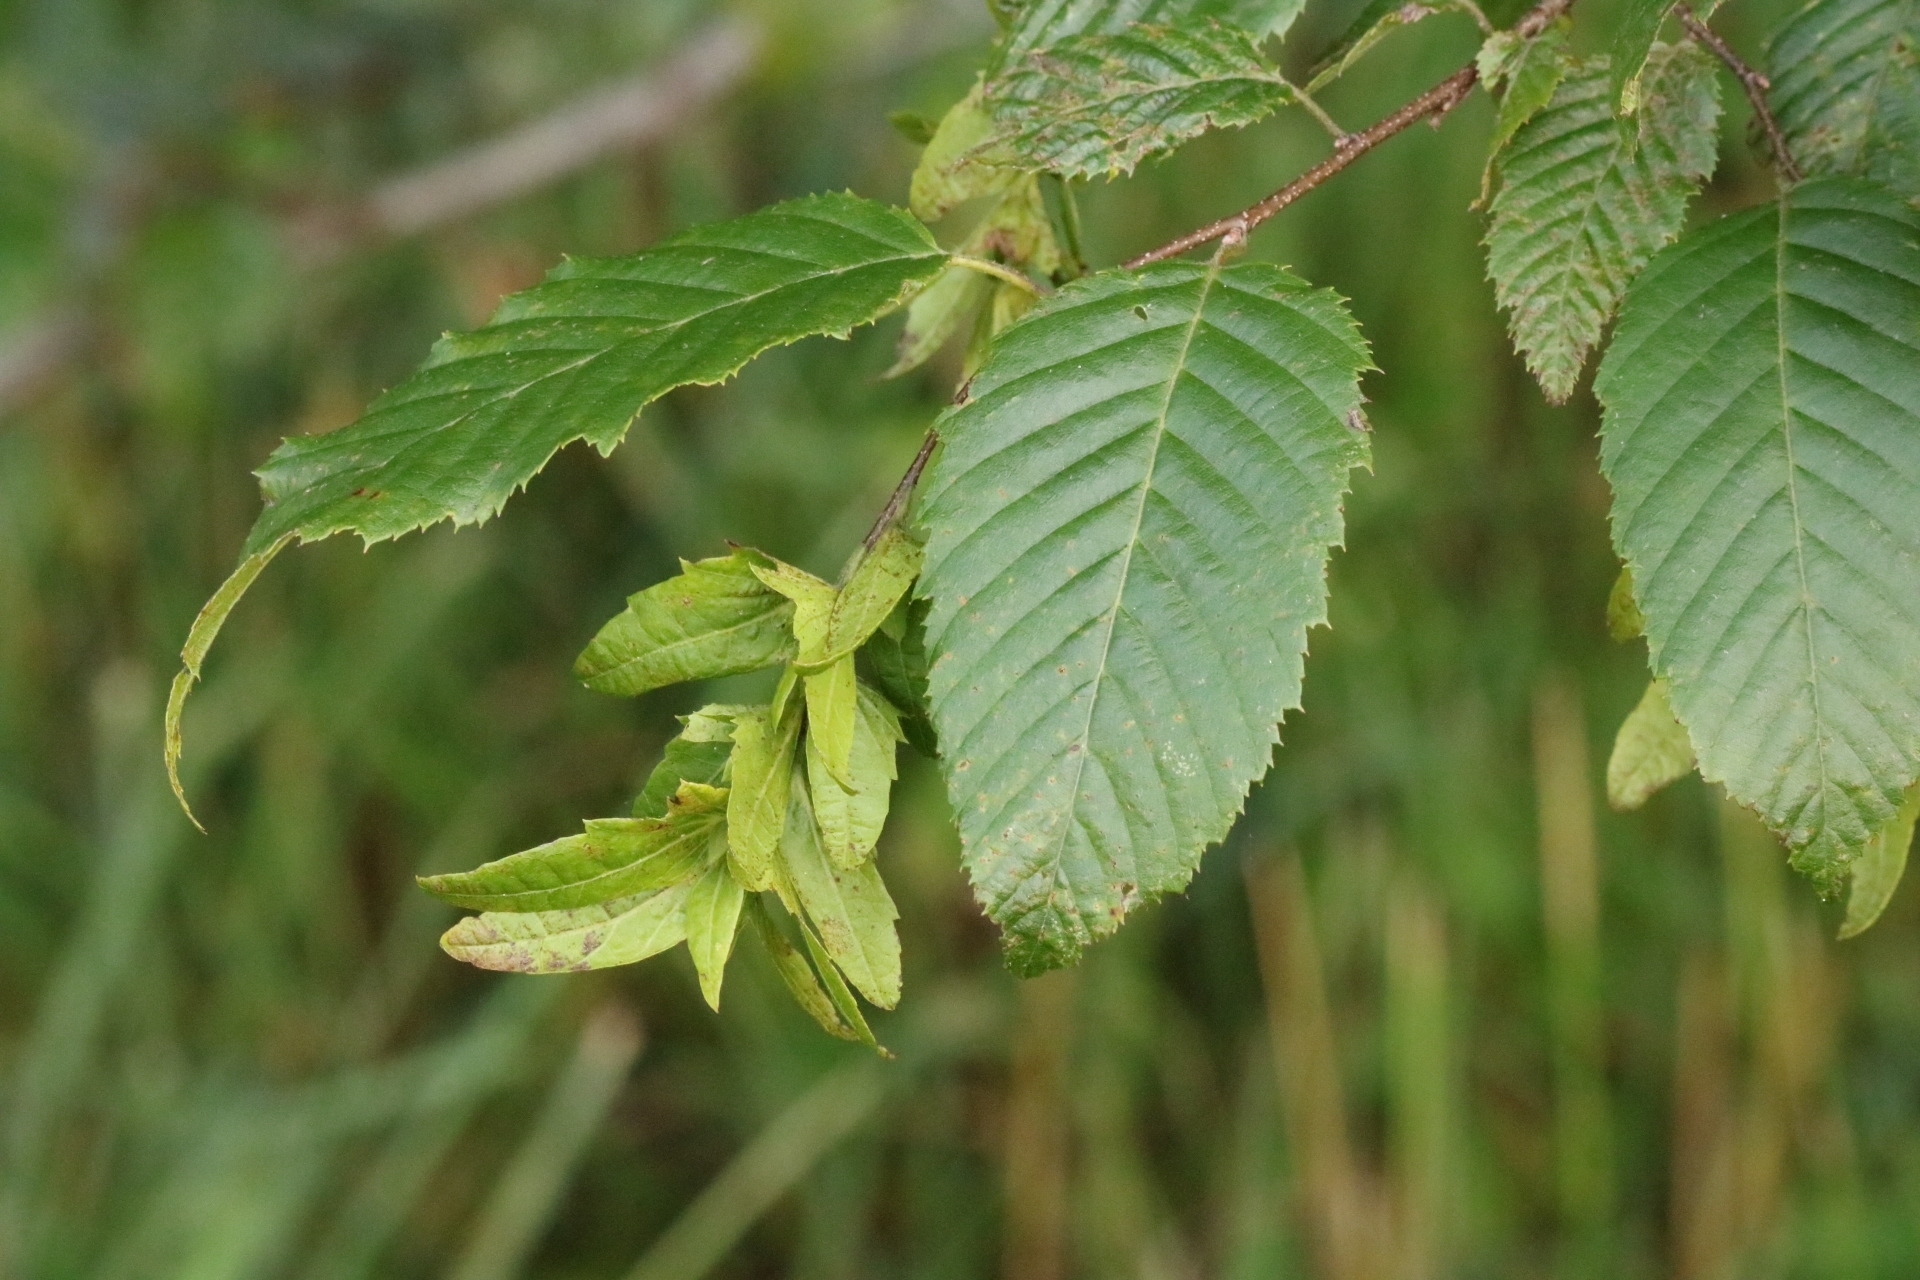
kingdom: Plantae
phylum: Tracheophyta
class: Magnoliopsida
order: Fagales
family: Betulaceae
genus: Carpinus
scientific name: Carpinus caroliniana
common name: American hornbeam
